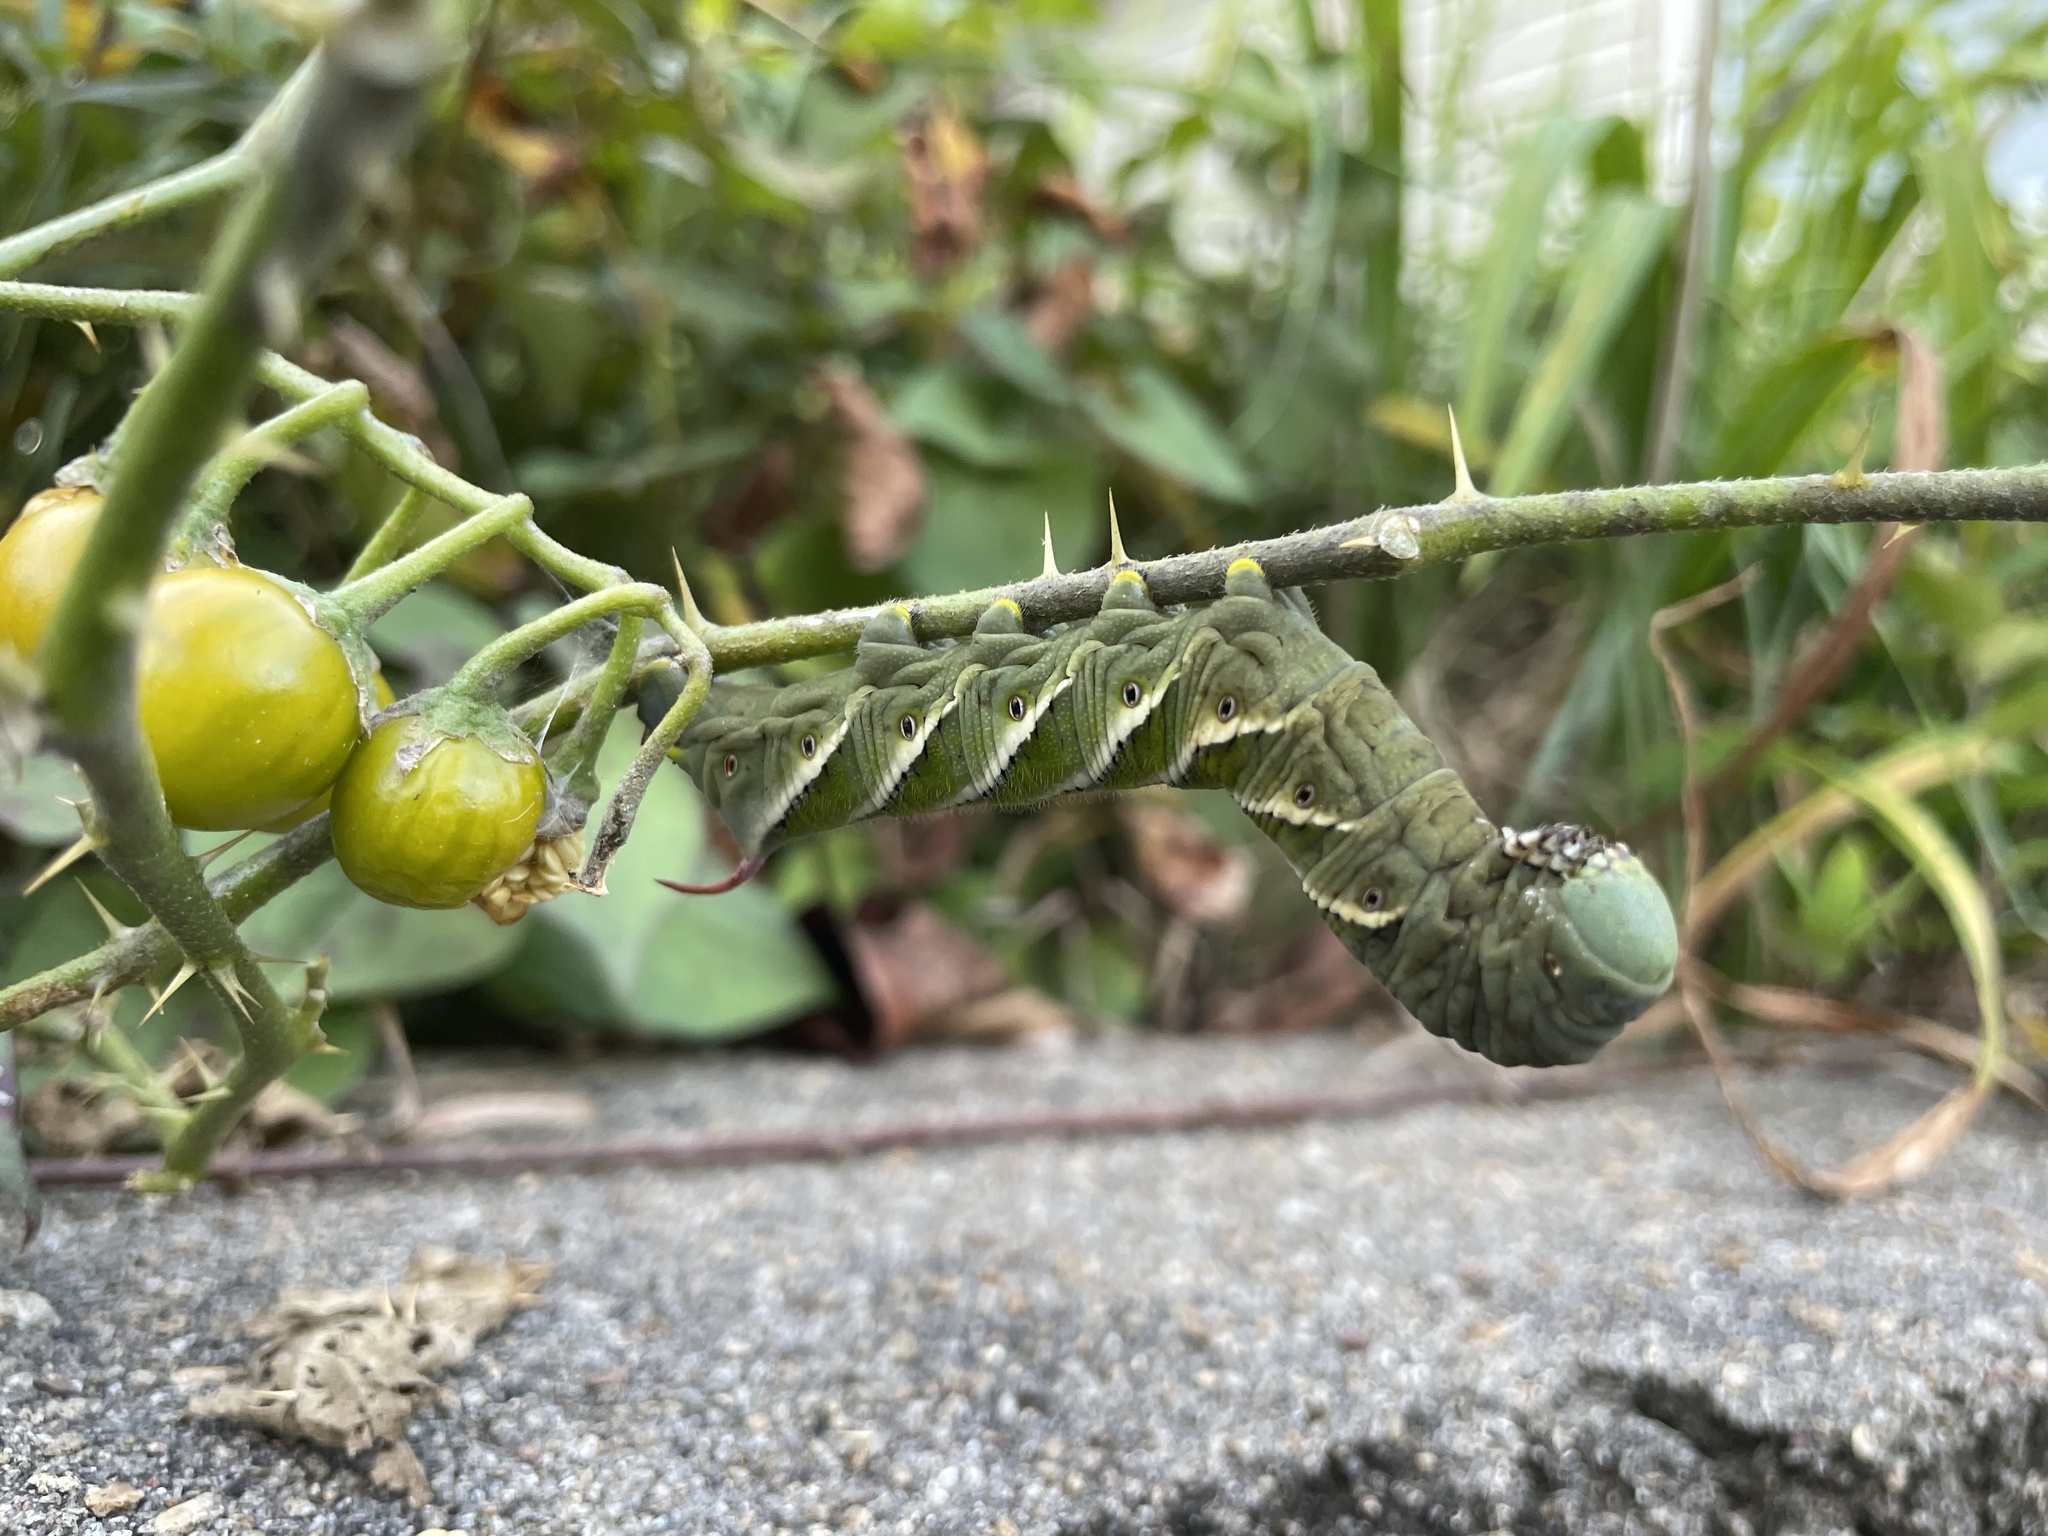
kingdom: Animalia
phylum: Arthropoda
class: Insecta
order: Lepidoptera
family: Sphingidae
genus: Manduca
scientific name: Manduca sexta
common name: Carolina sphinx
